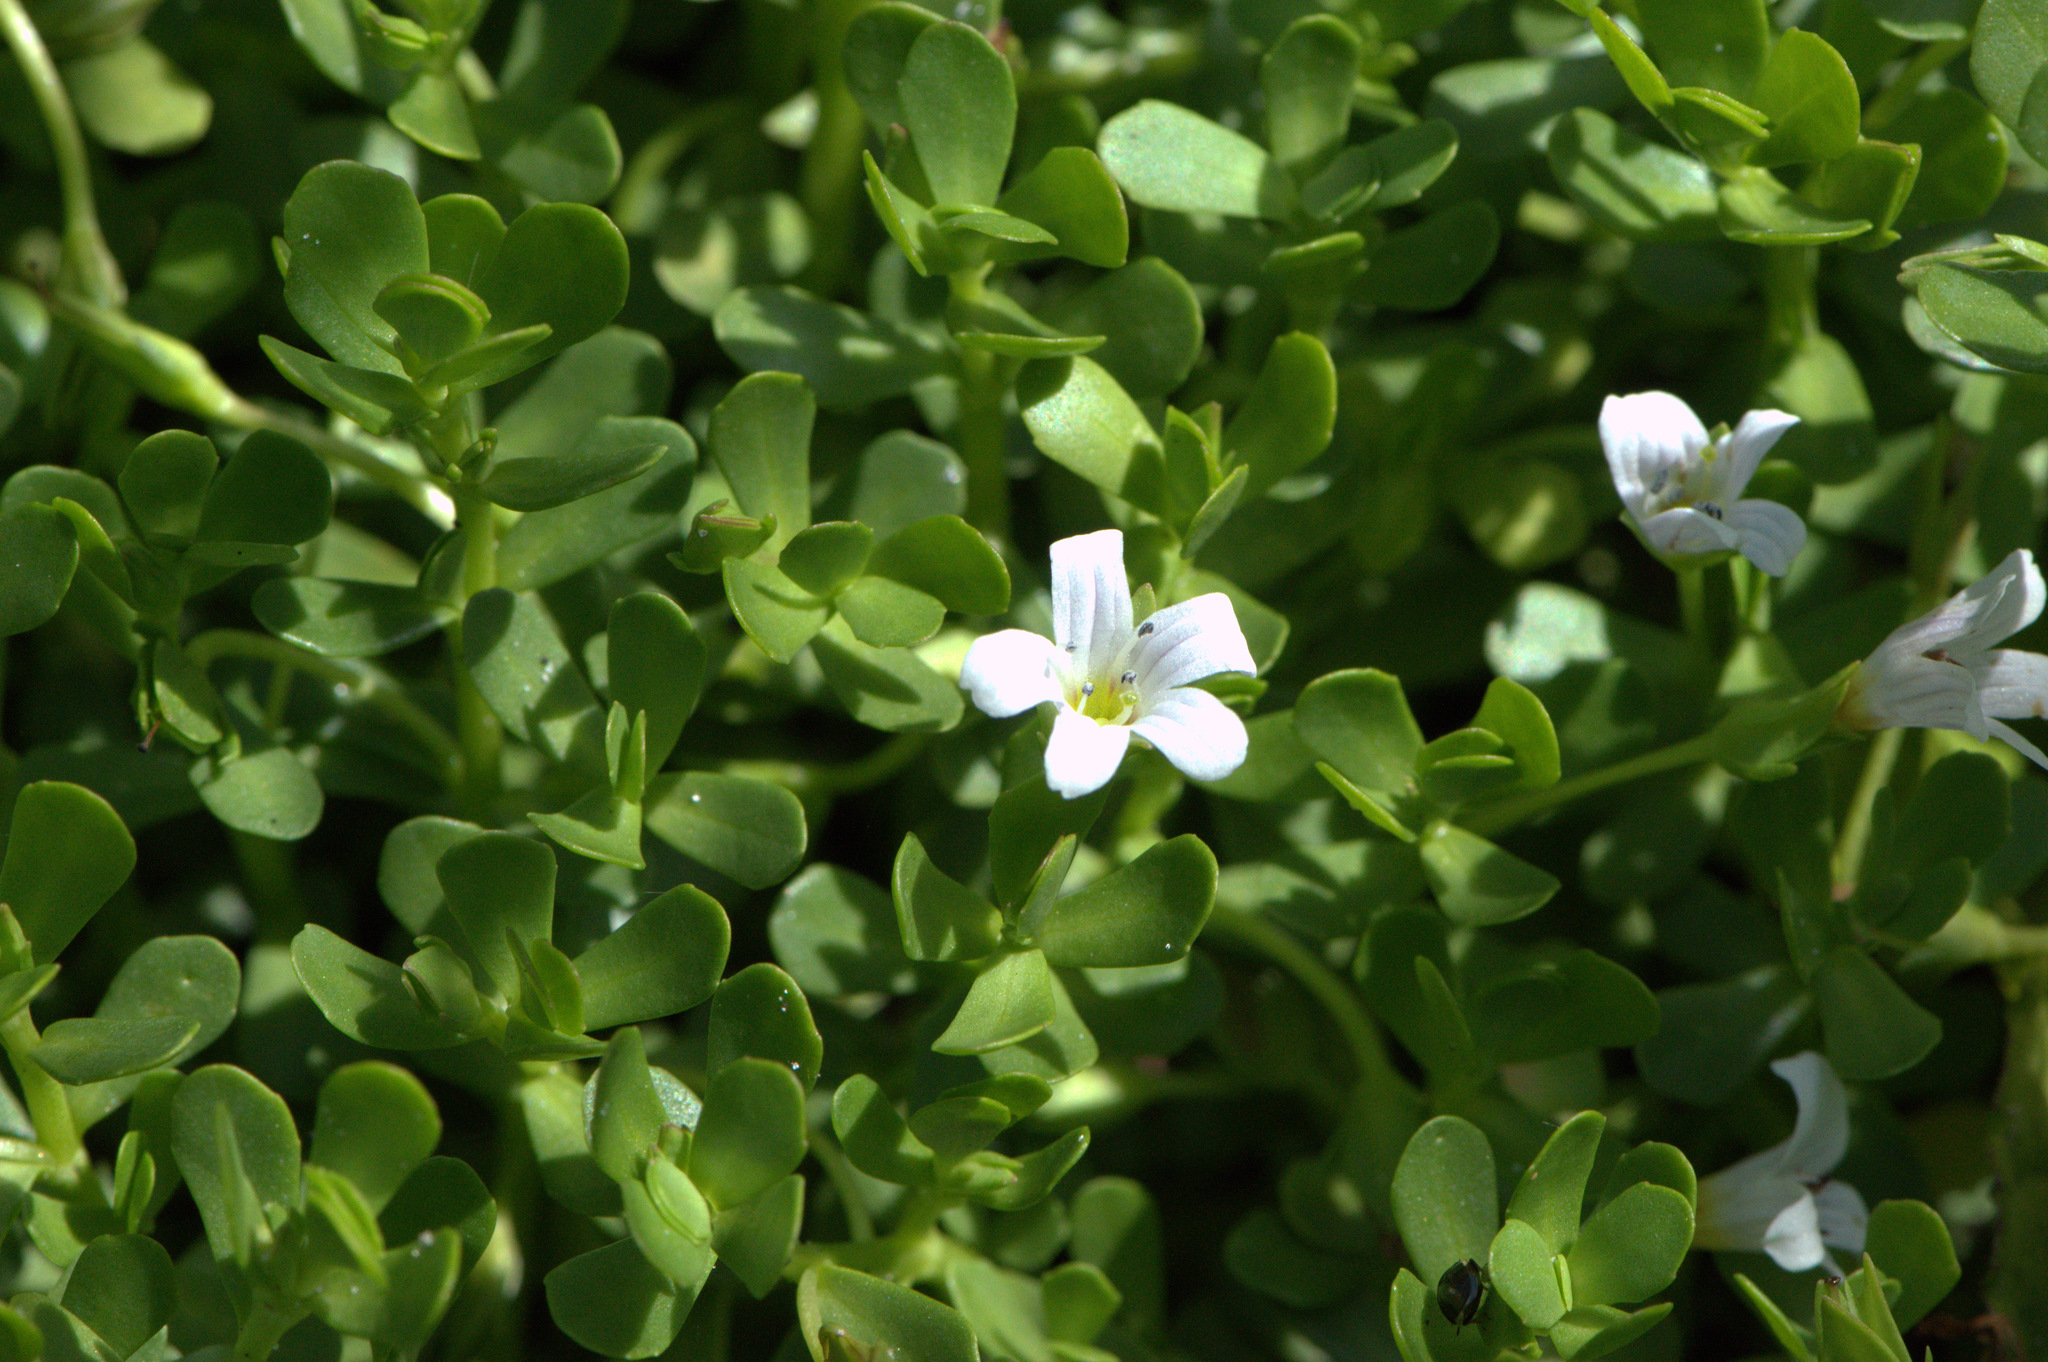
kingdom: Plantae
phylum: Tracheophyta
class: Magnoliopsida
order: Lamiales
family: Plantaginaceae
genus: Bacopa
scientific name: Bacopa monnieri
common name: Indian-pennywort
